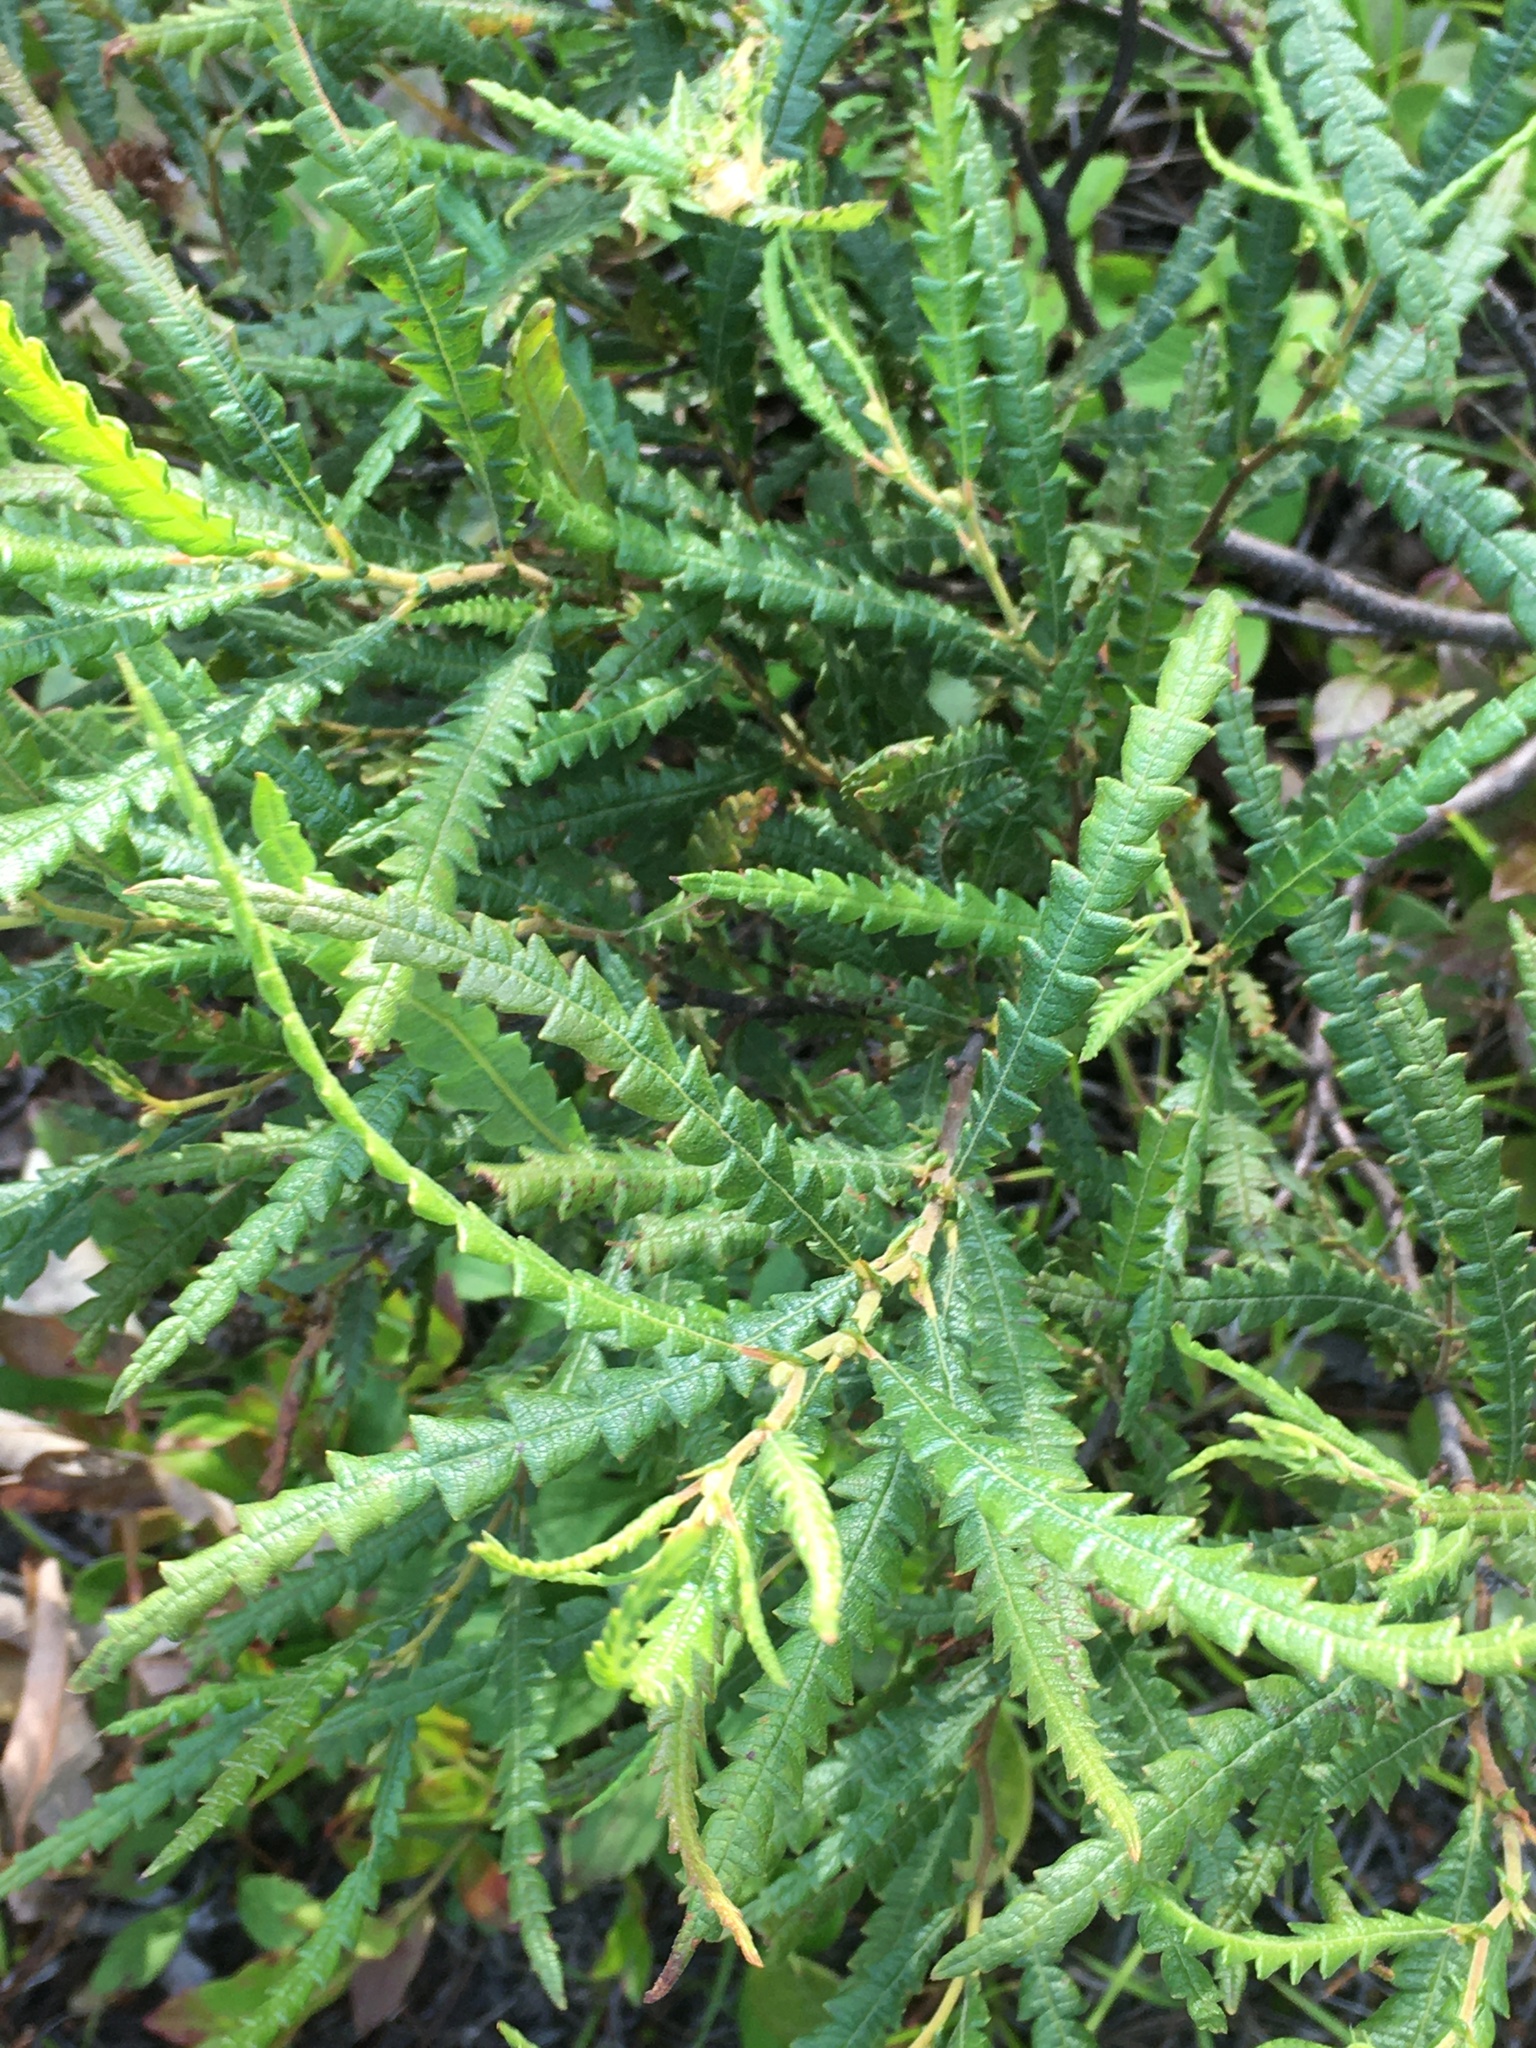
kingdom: Plantae
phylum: Tracheophyta
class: Magnoliopsida
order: Fagales
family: Myricaceae
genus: Comptonia
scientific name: Comptonia peregrina
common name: Sweet-fern
